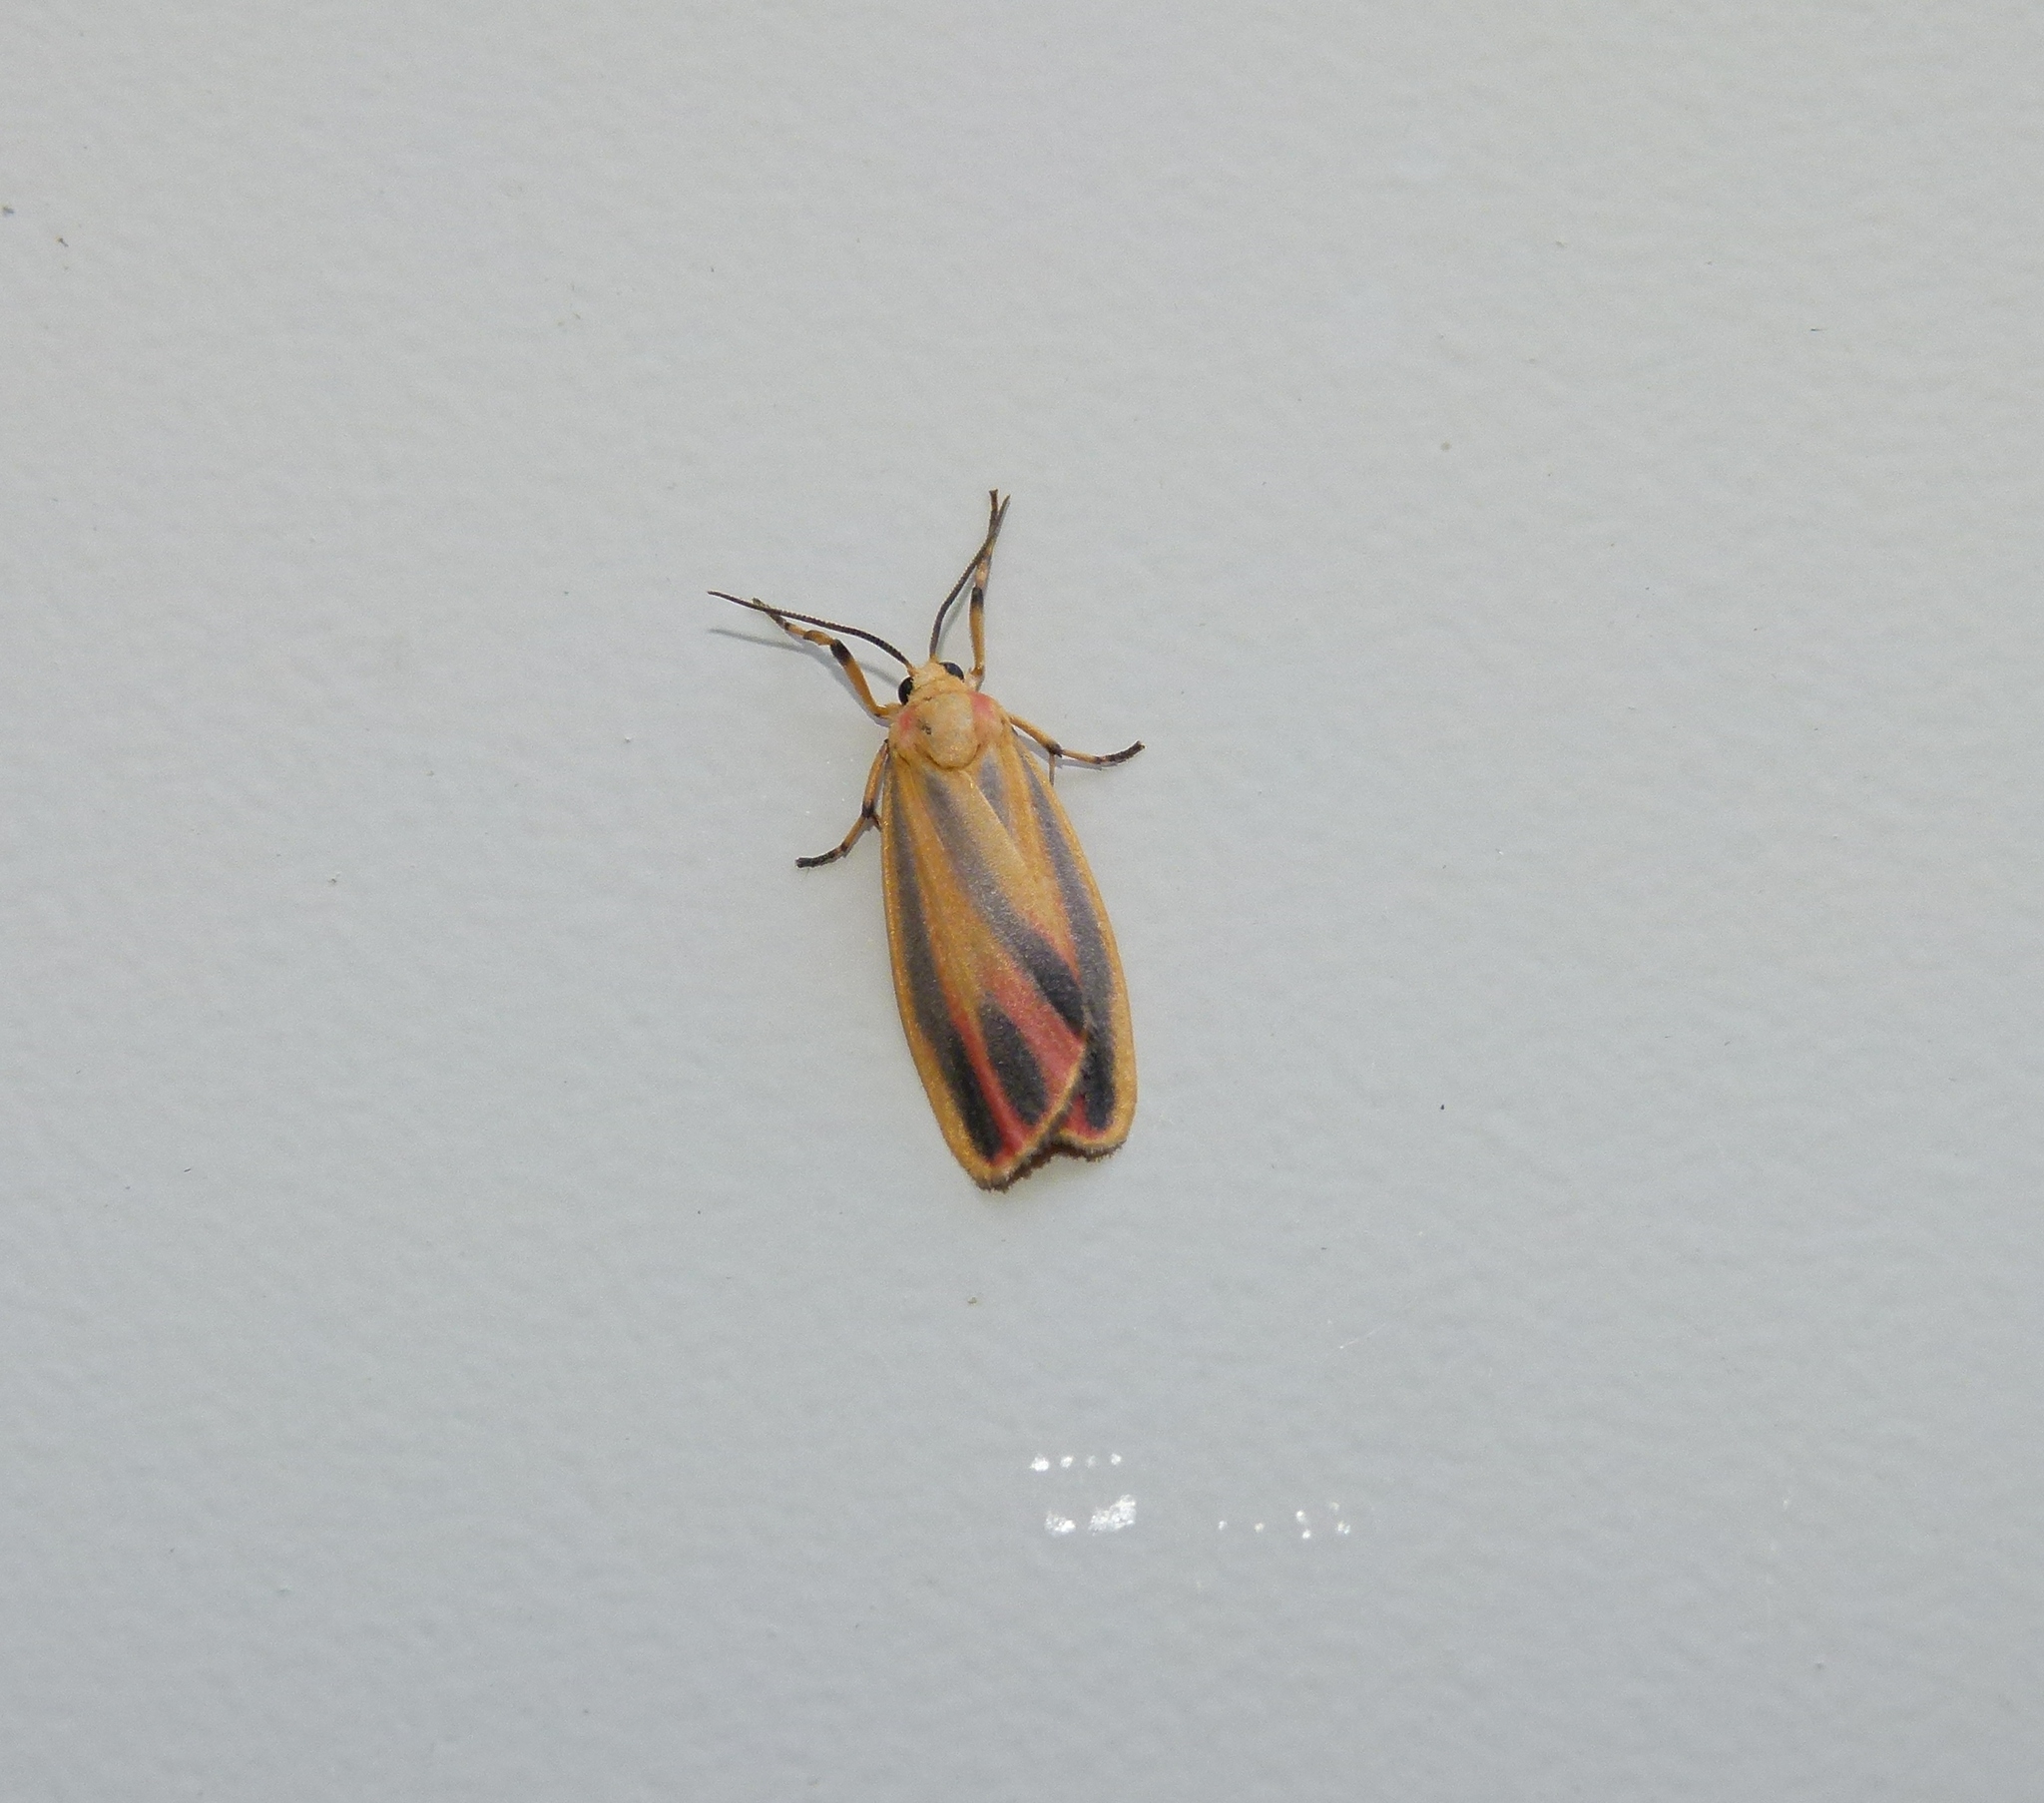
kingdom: Animalia
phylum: Arthropoda
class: Insecta
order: Lepidoptera
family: Erebidae
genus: Hypoprepia
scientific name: Hypoprepia fucosa
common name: Painted lichen moth
